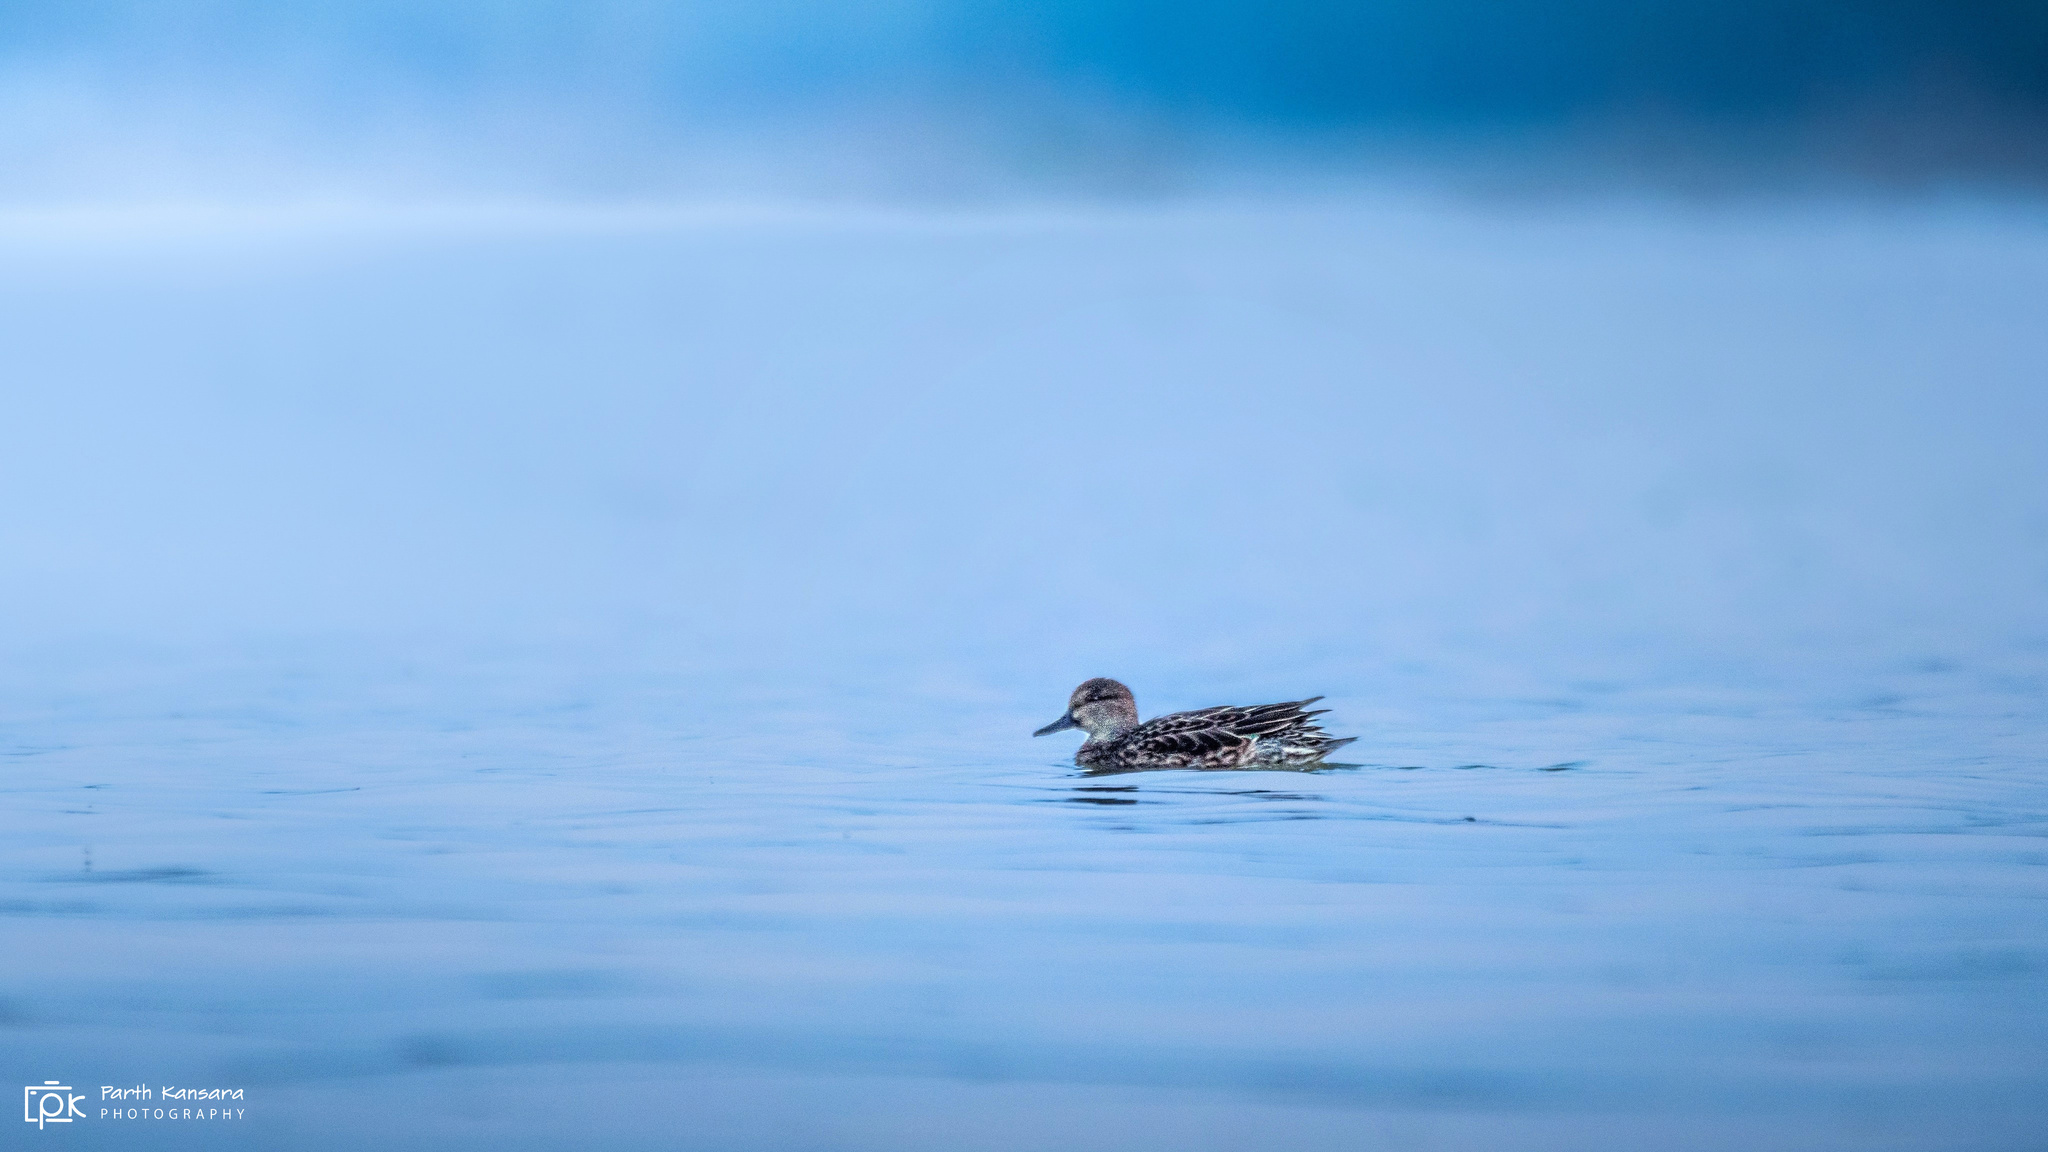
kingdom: Animalia
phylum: Chordata
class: Aves
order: Anseriformes
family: Anatidae
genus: Spatula
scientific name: Spatula querquedula
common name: Garganey
